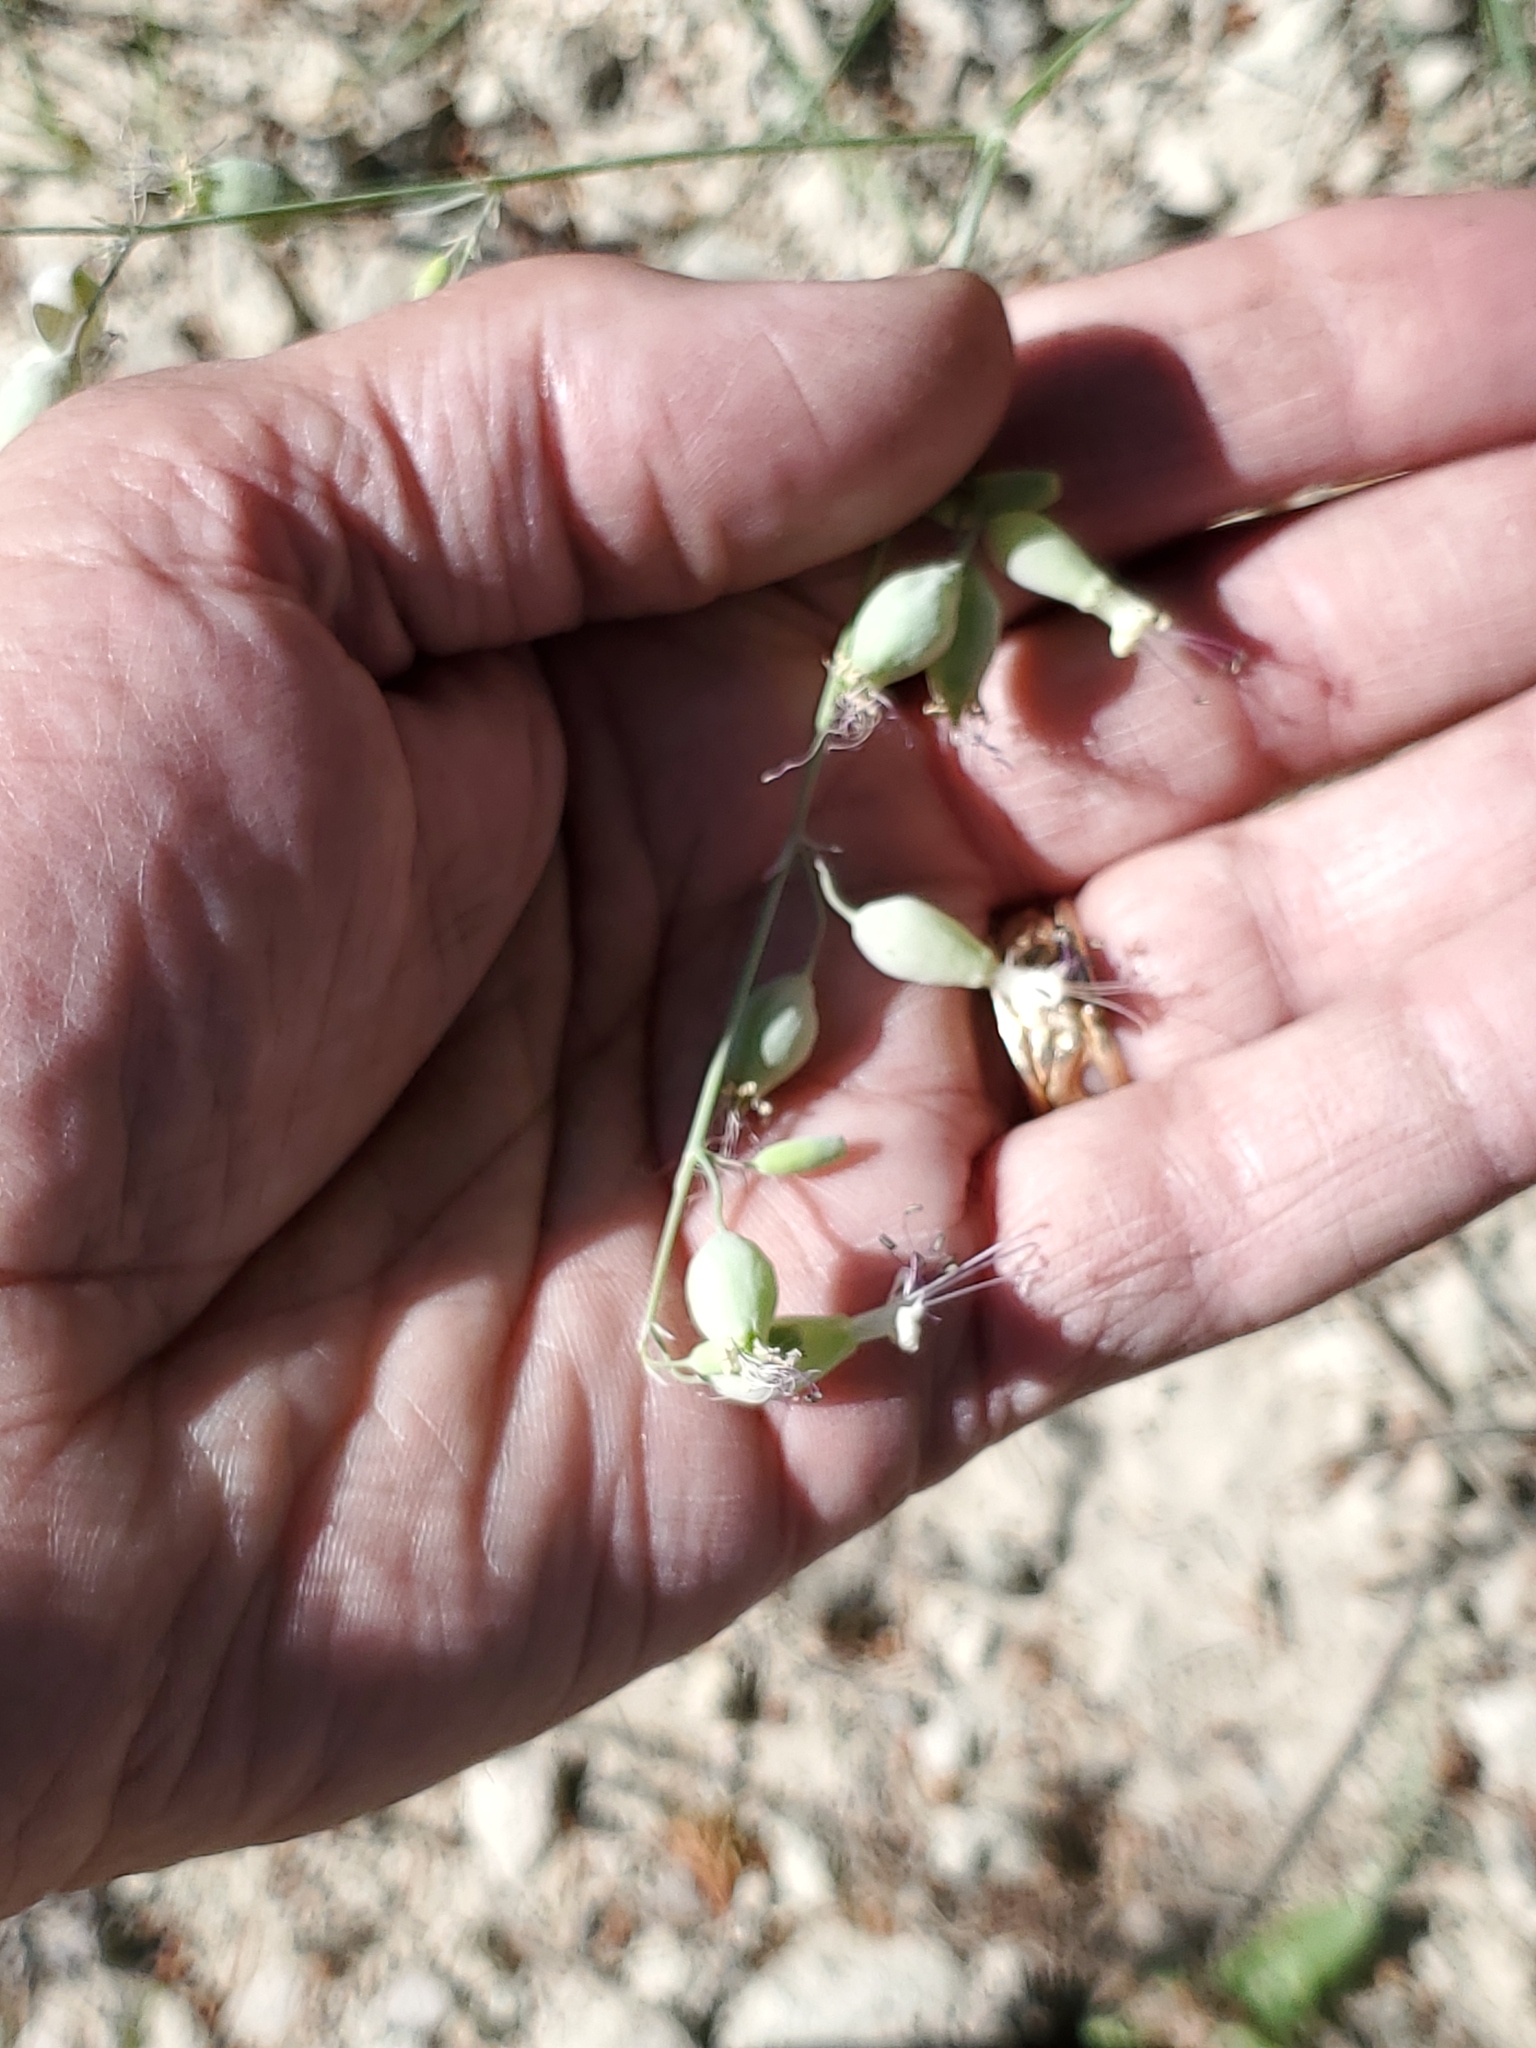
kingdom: Plantae
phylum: Tracheophyta
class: Magnoliopsida
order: Caryophyllales
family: Caryophyllaceae
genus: Silene
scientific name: Silene csereii
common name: Balkan catchfly
